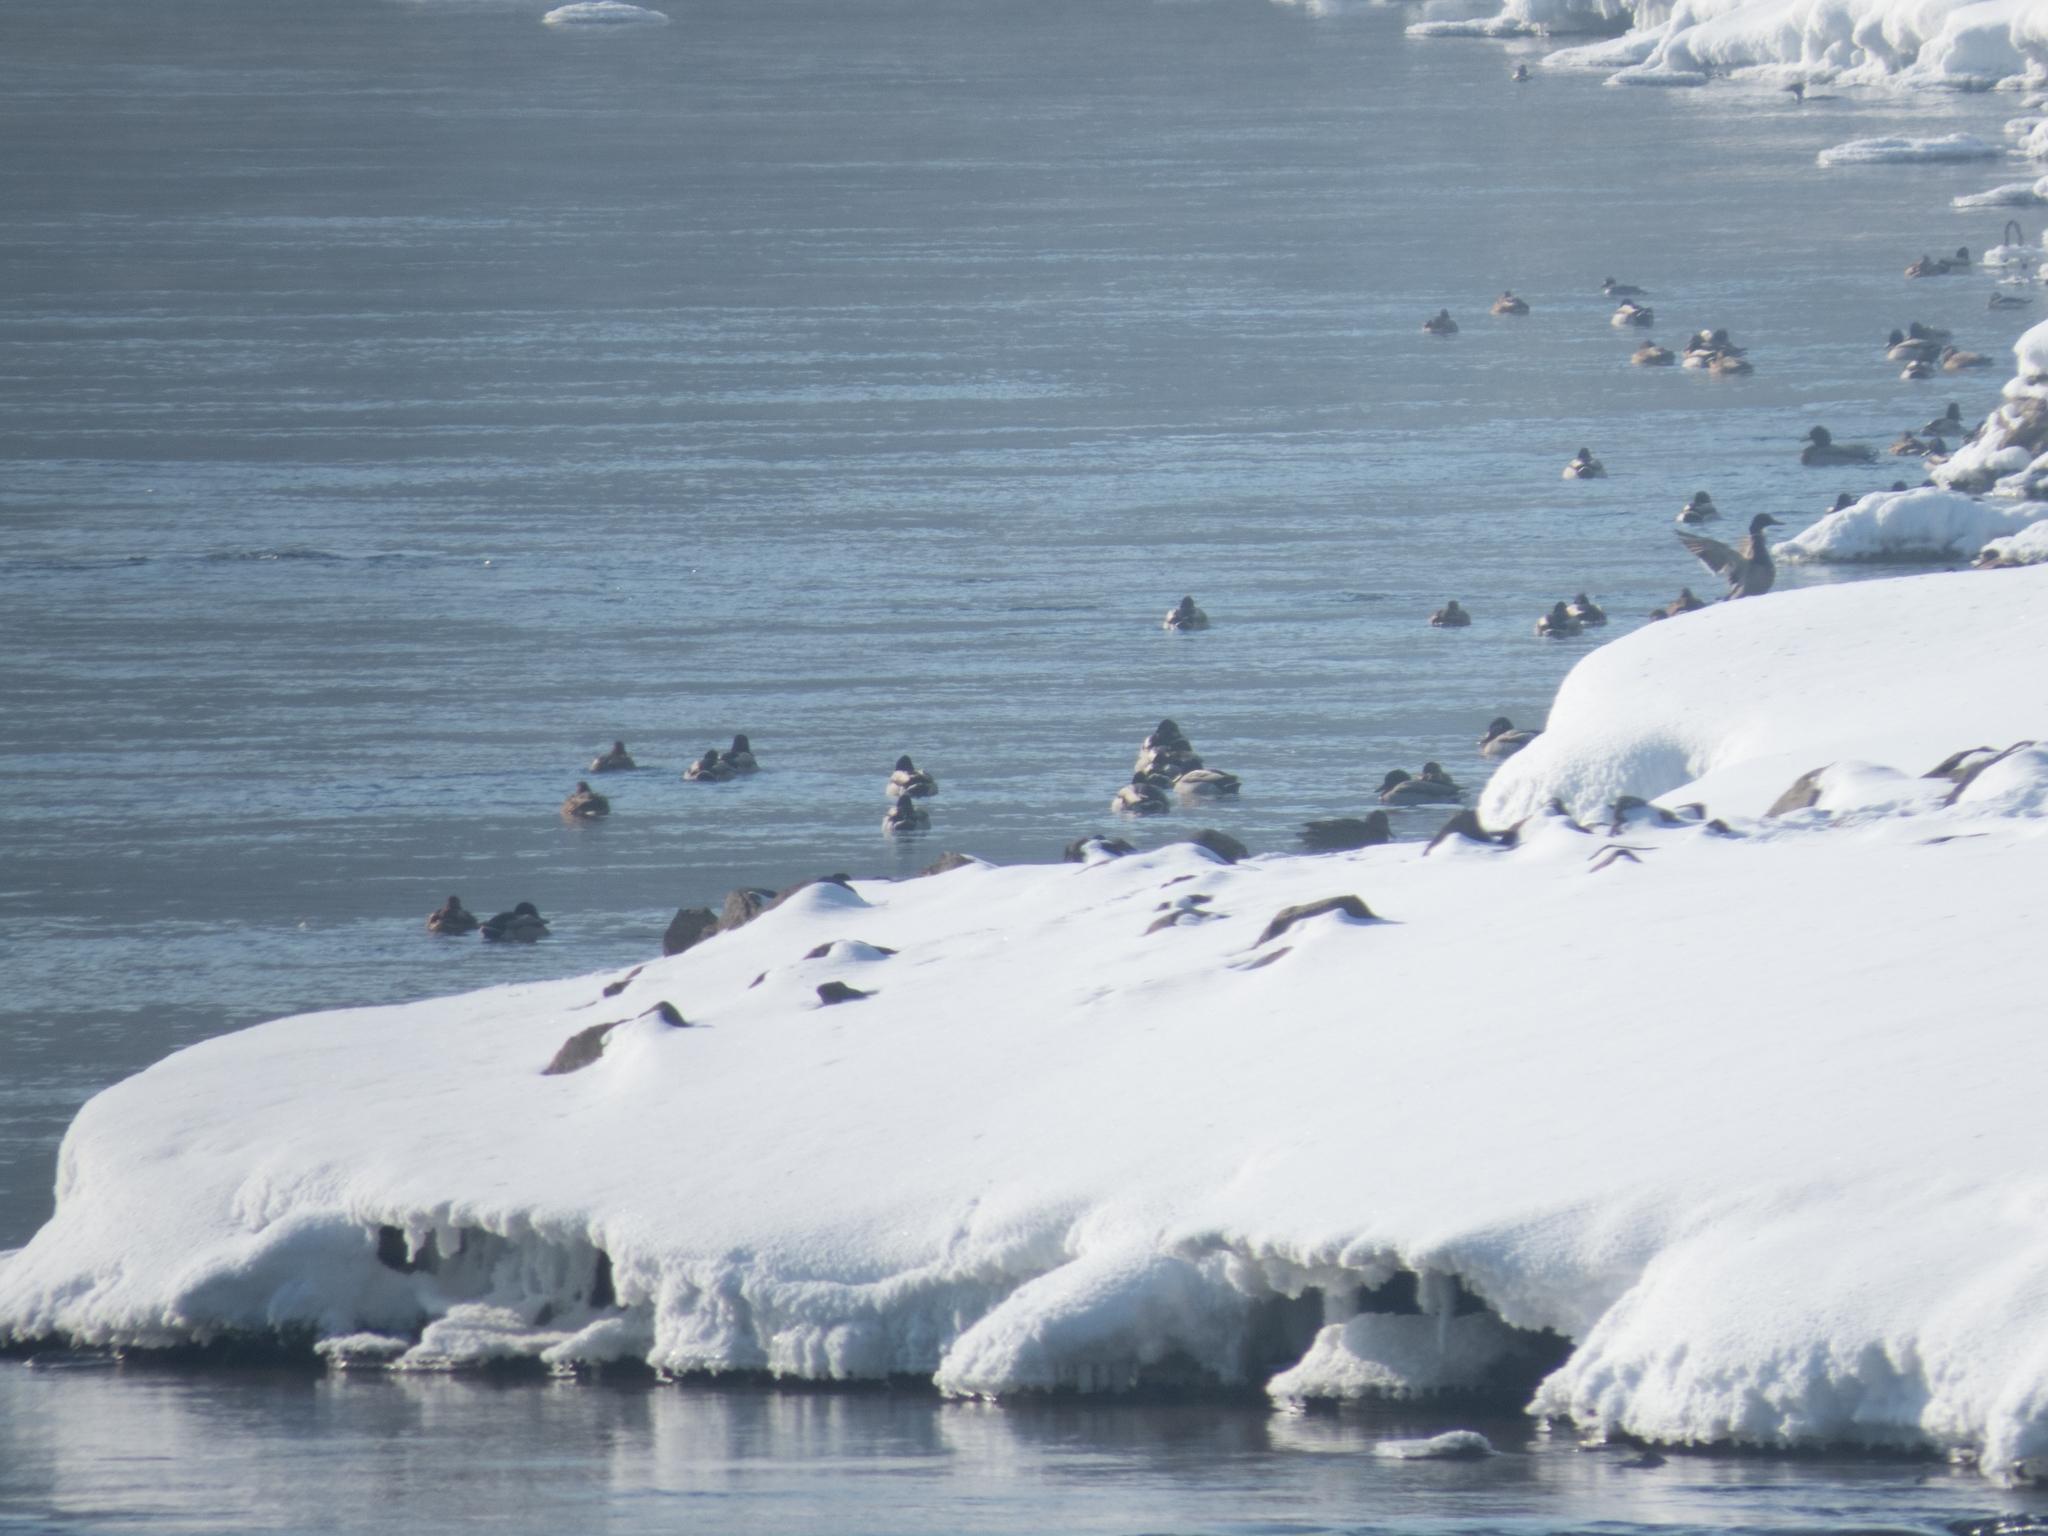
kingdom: Animalia
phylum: Chordata
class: Aves
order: Anseriformes
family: Anatidae
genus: Anas
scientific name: Anas platyrhynchos
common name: Mallard
